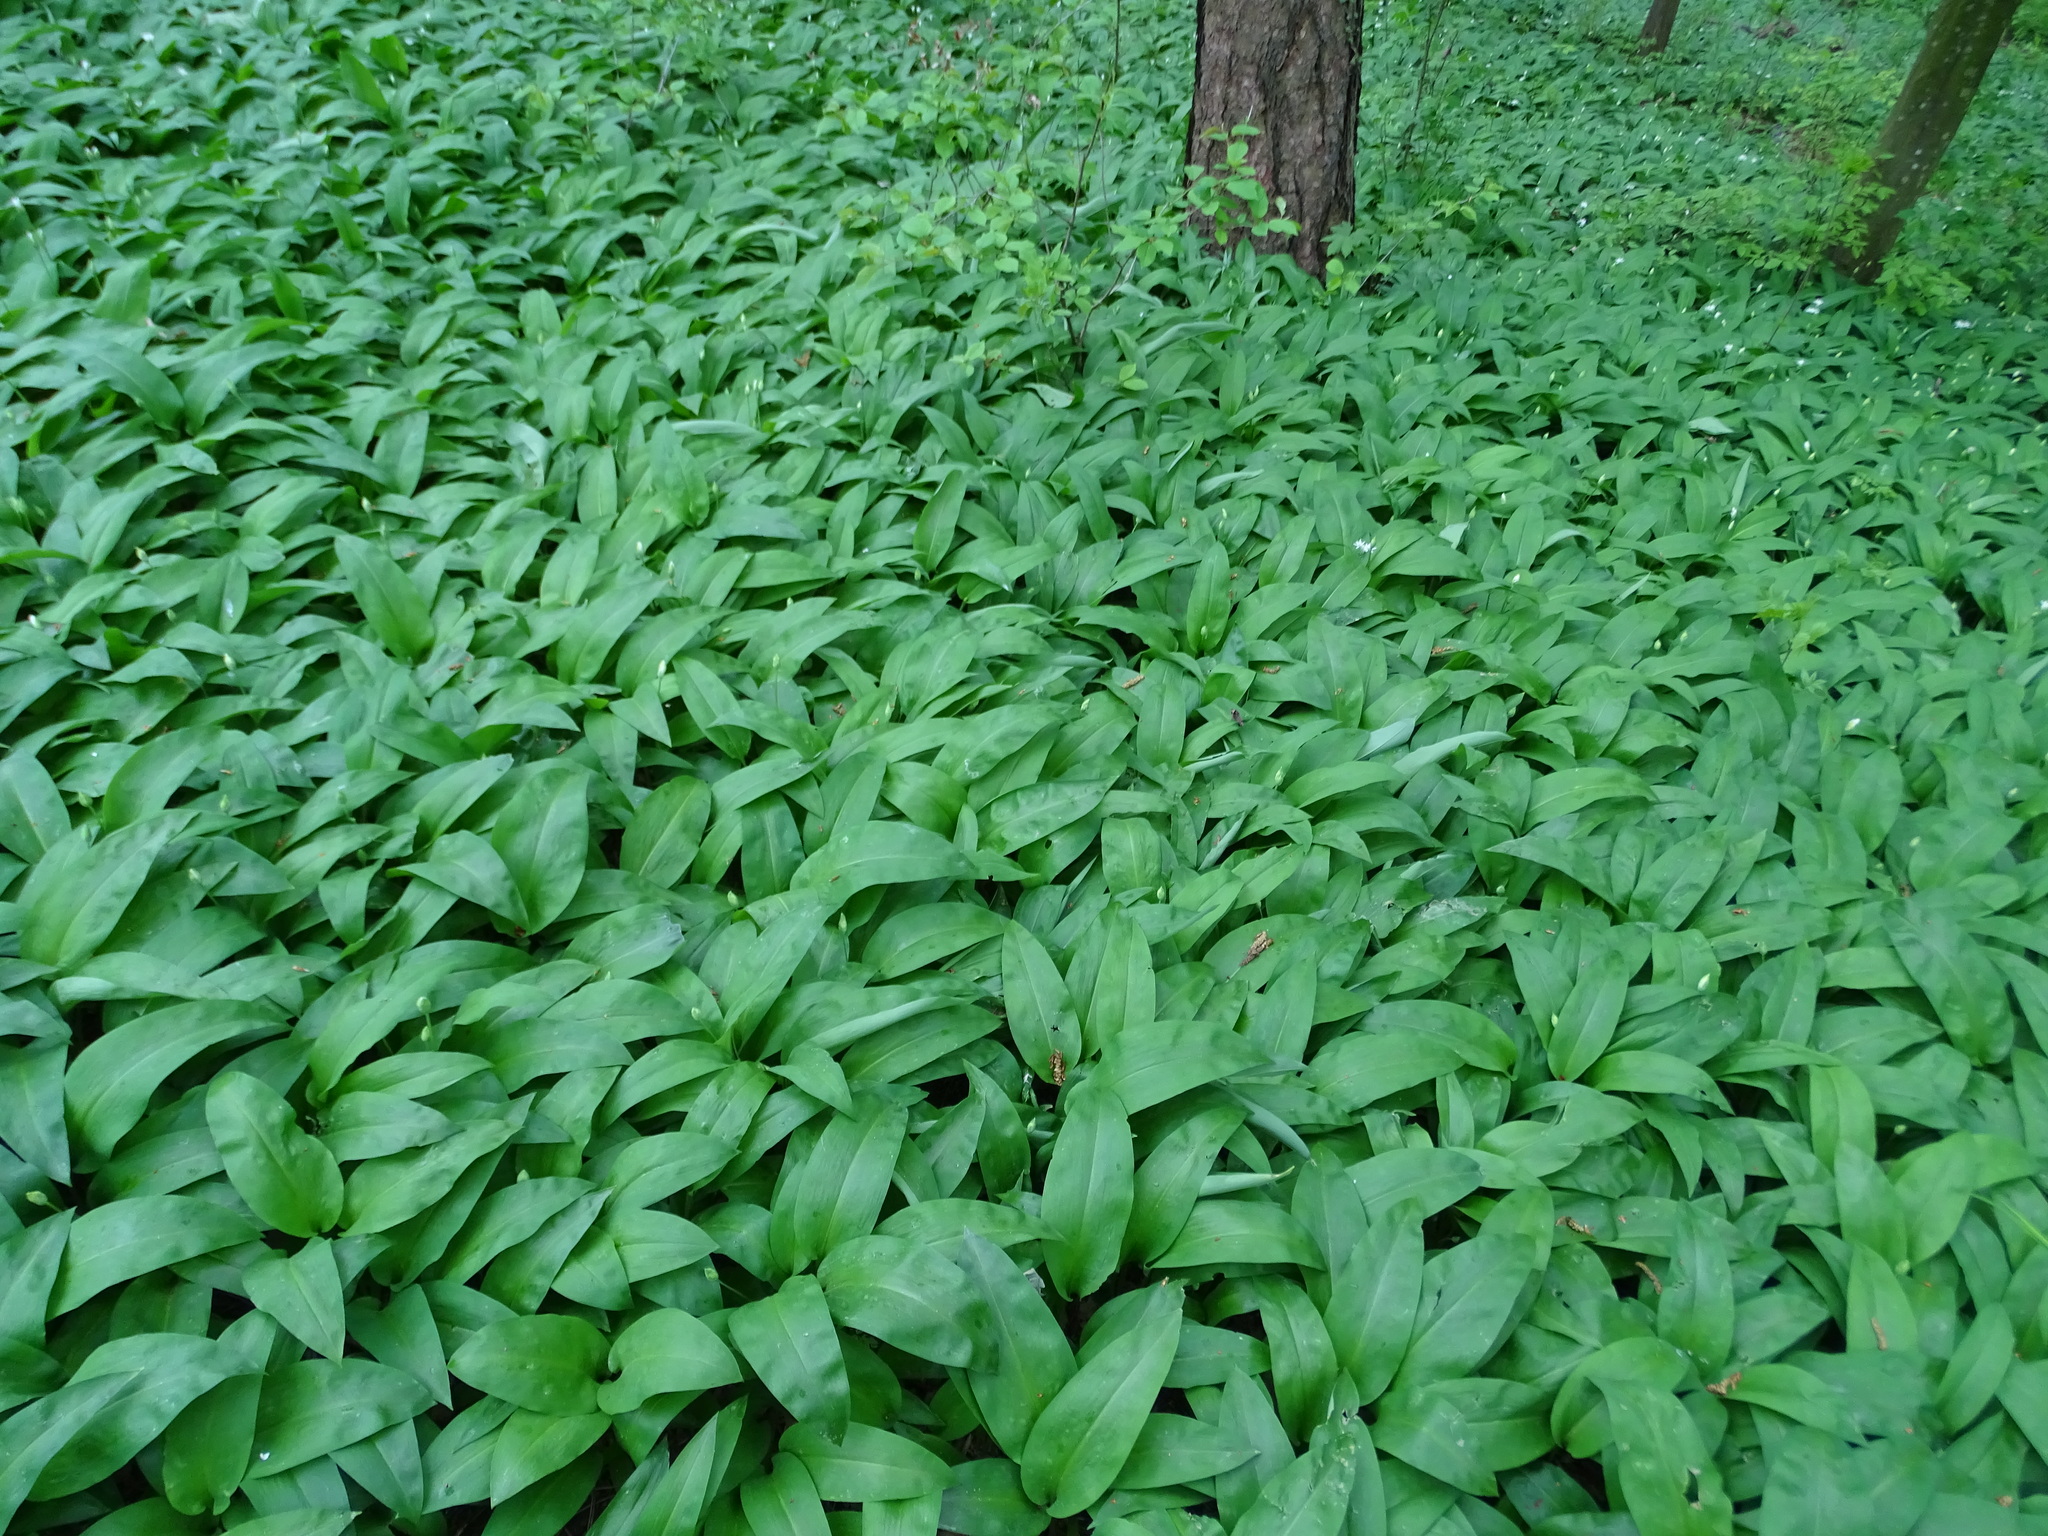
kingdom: Plantae
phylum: Tracheophyta
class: Liliopsida
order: Asparagales
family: Amaryllidaceae
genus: Allium
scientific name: Allium ursinum
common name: Ramsons
